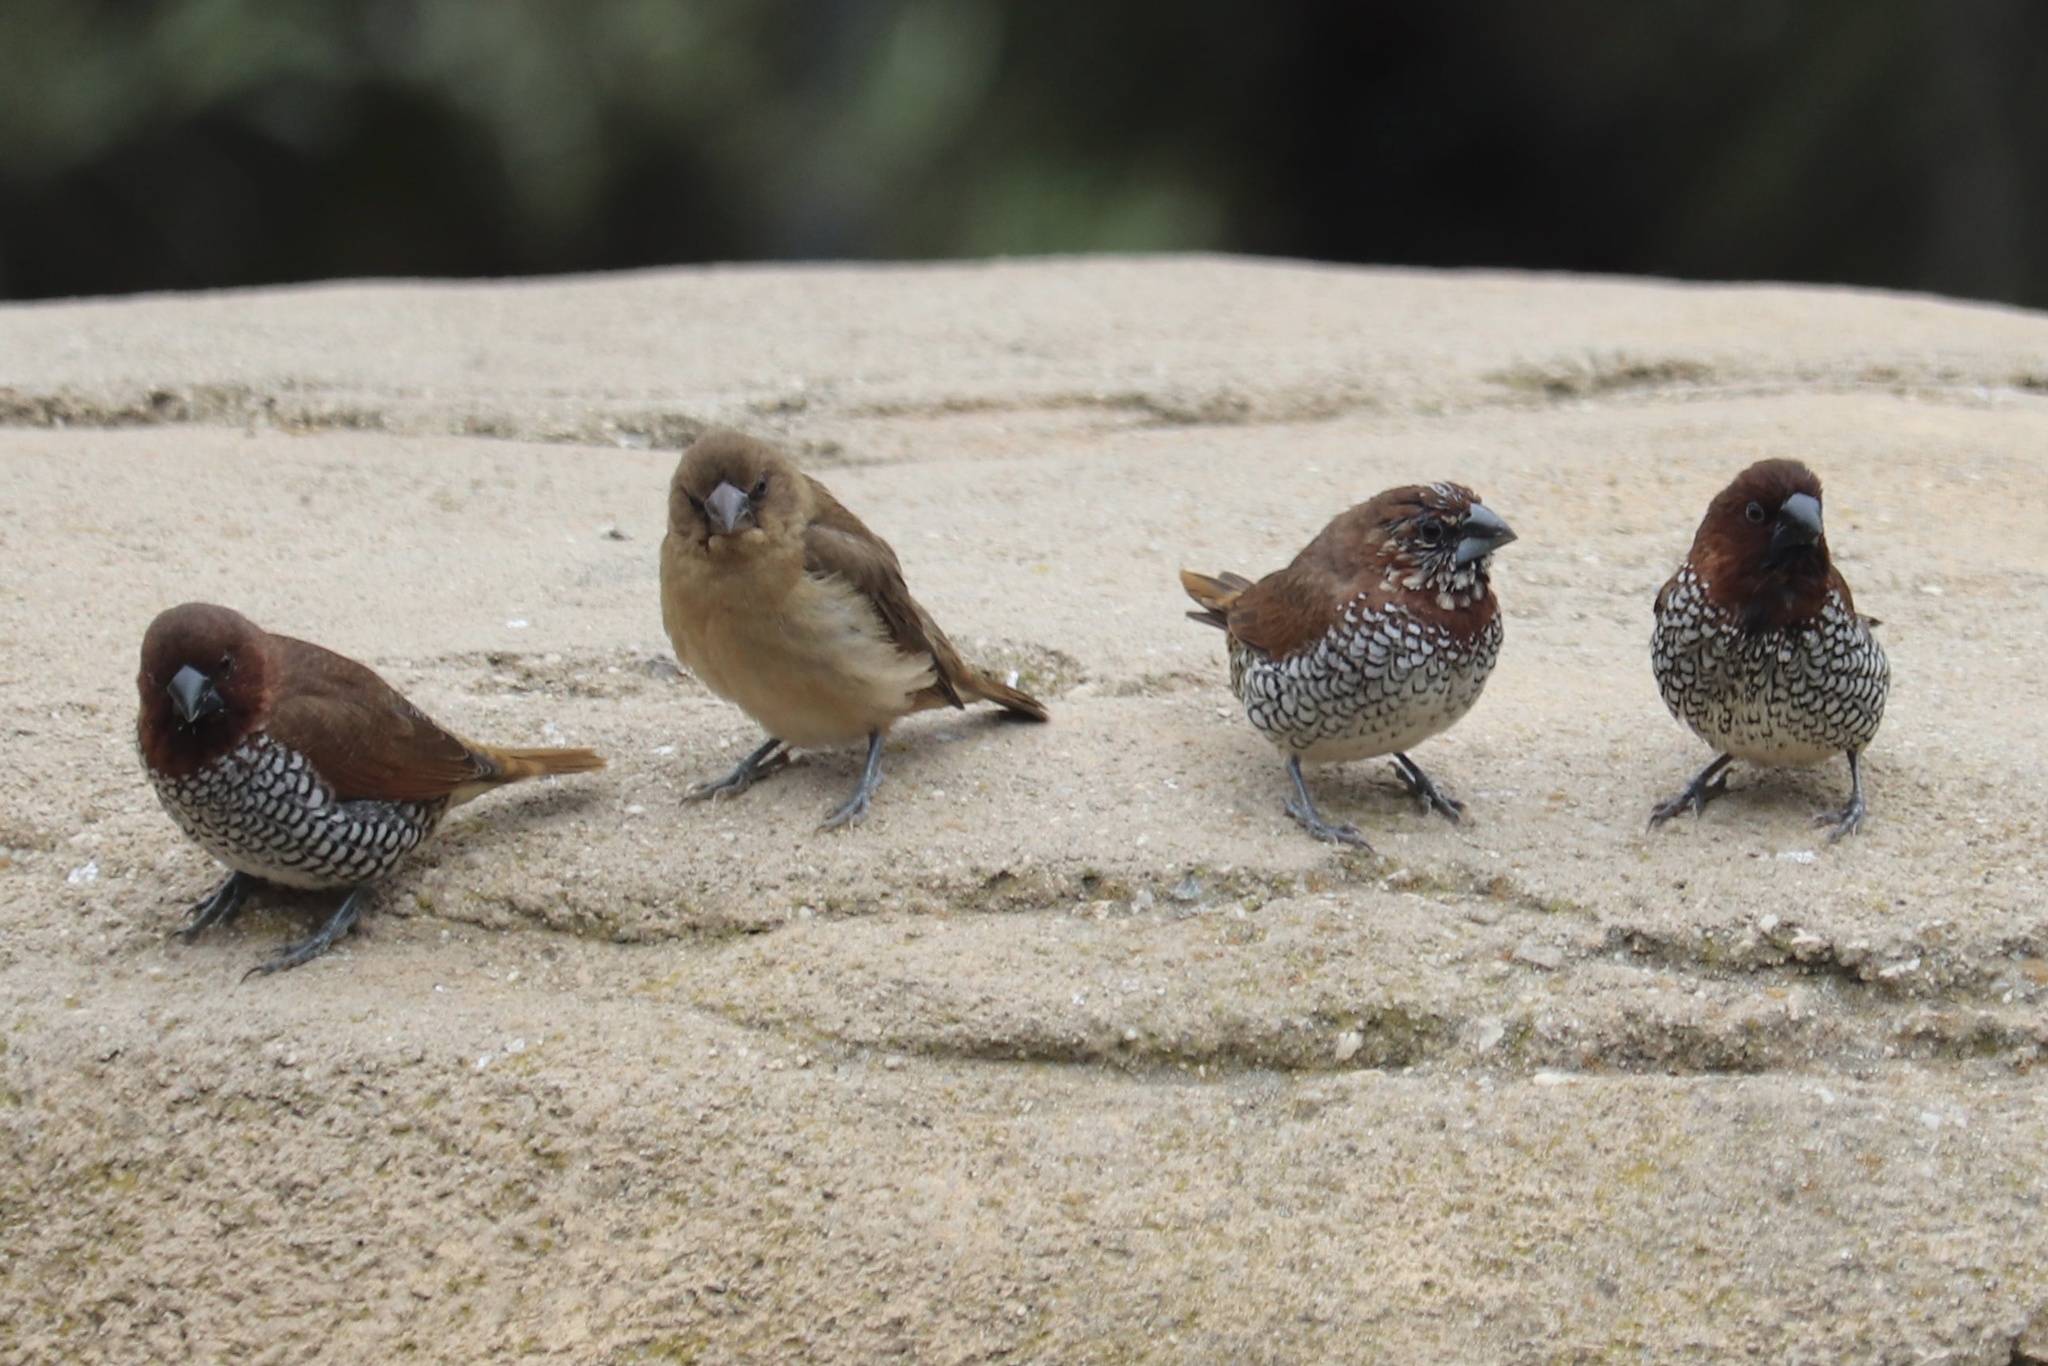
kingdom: Animalia
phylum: Chordata
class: Aves
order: Passeriformes
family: Estrildidae
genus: Lonchura
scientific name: Lonchura punctulata
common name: Scaly-breasted munia
